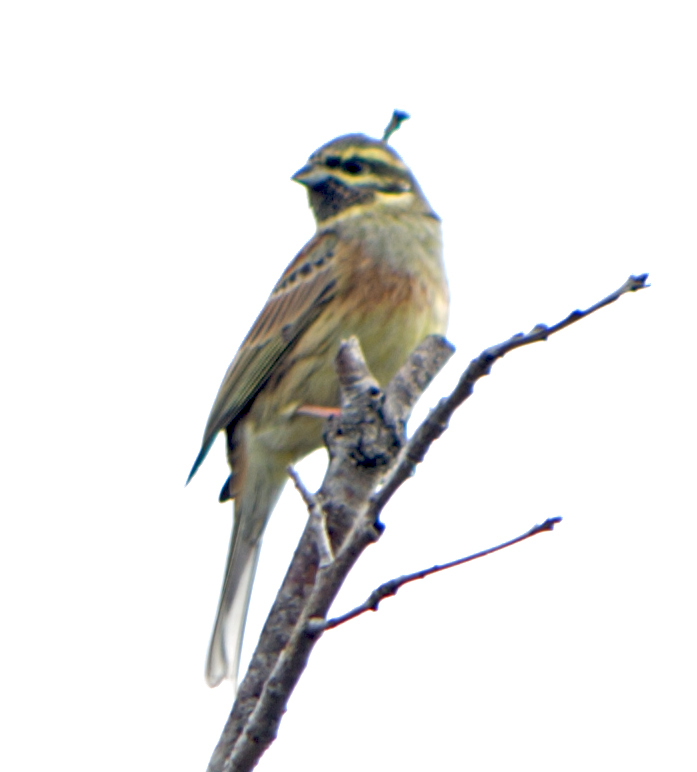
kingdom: Animalia
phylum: Chordata
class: Aves
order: Passeriformes
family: Emberizidae
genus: Emberiza
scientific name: Emberiza cirlus
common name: Cirl bunting
